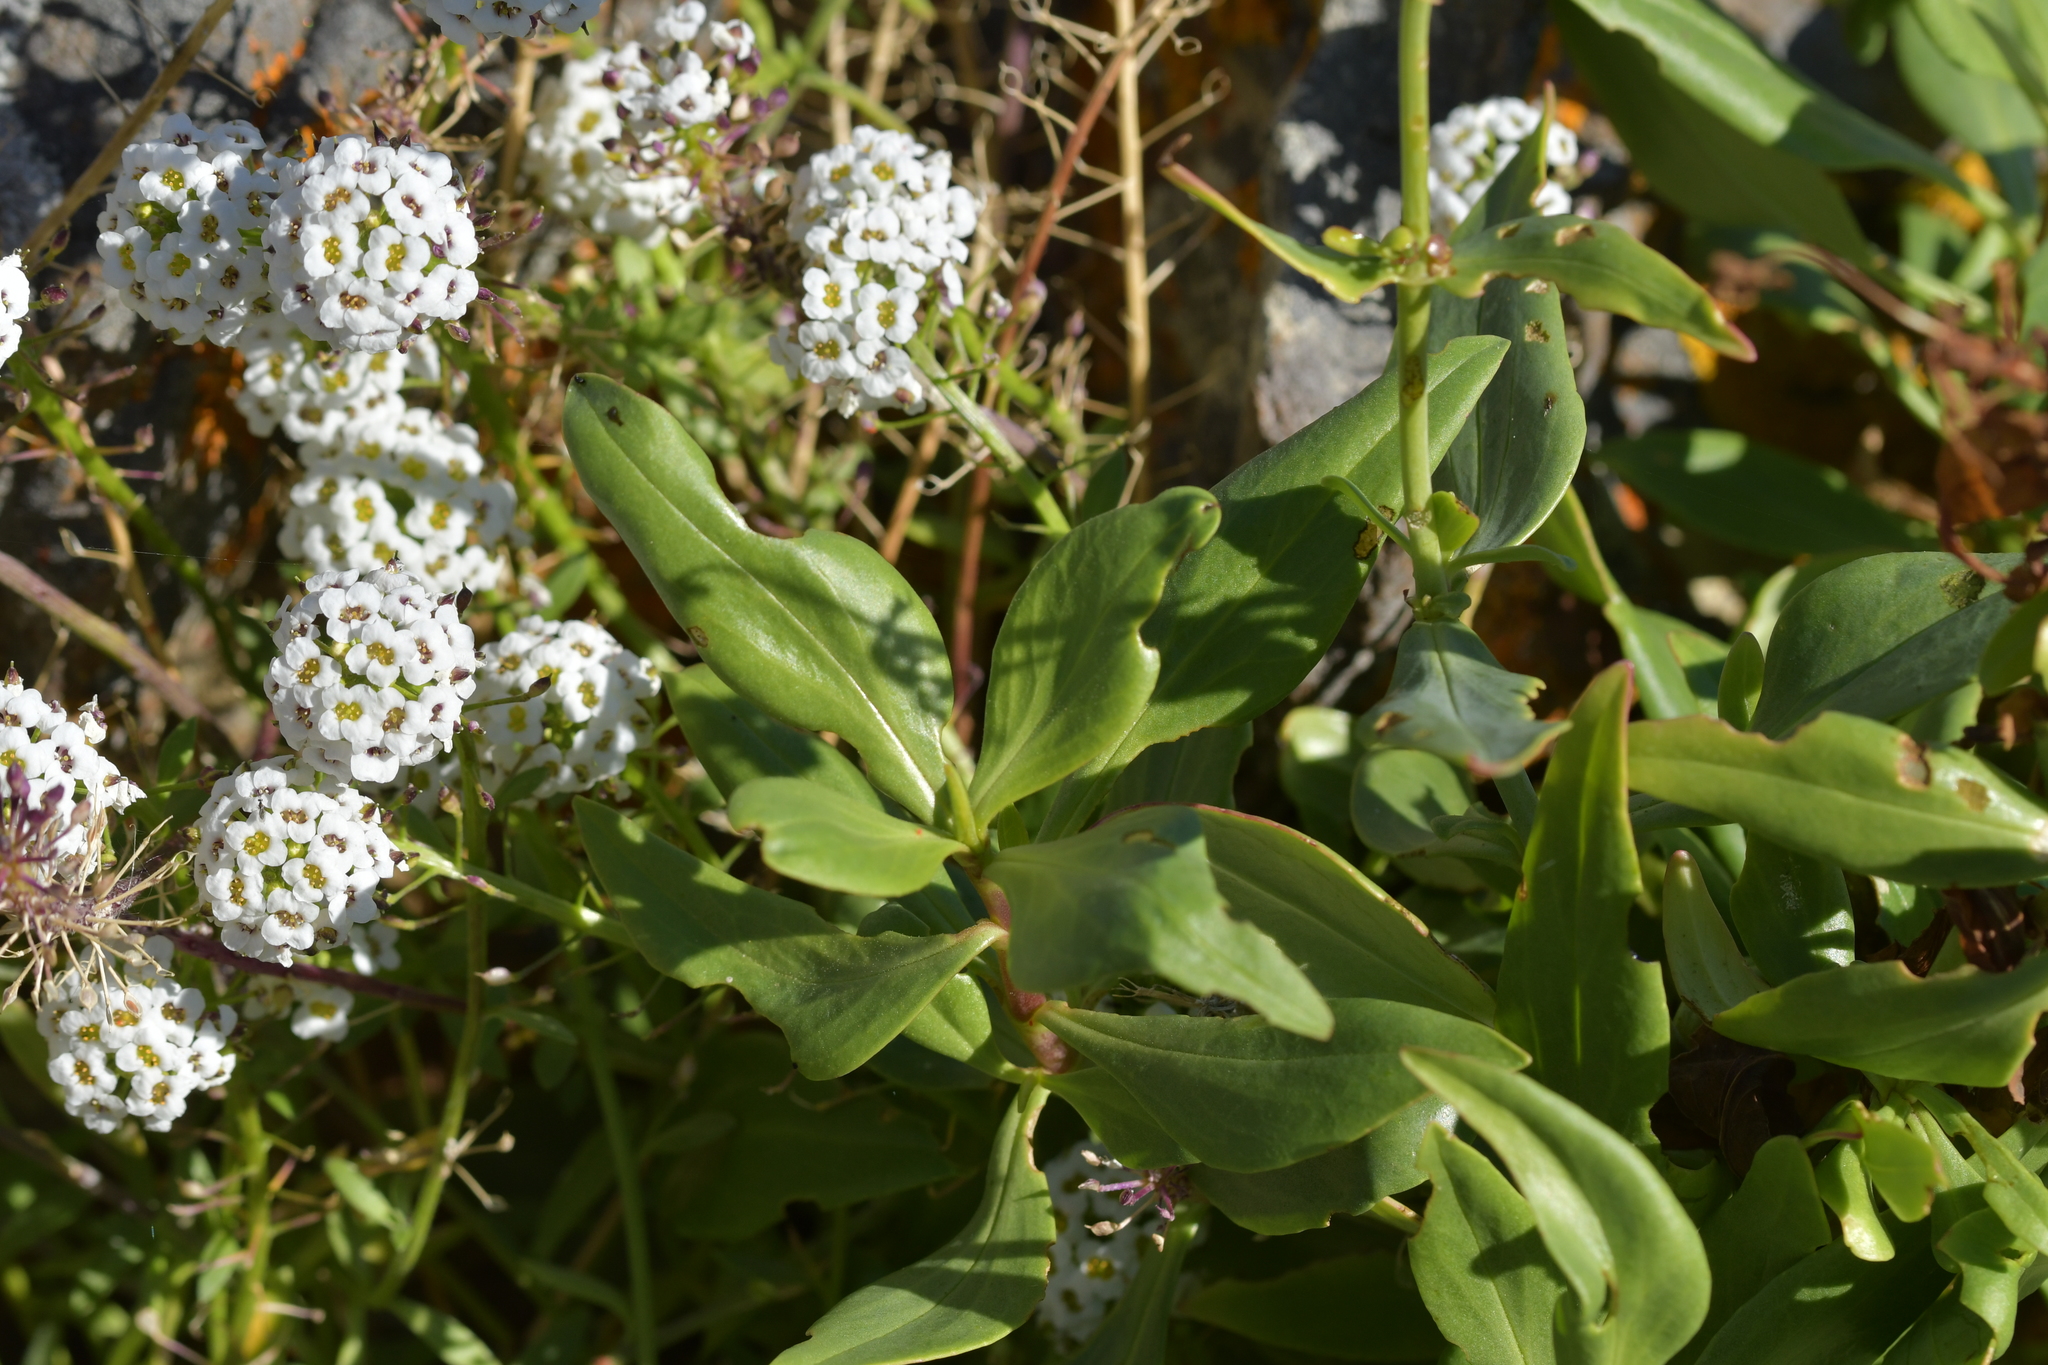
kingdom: Plantae
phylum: Tracheophyta
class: Magnoliopsida
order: Dipsacales
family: Caprifoliaceae
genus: Centranthus
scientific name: Centranthus ruber
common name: Red valerian
